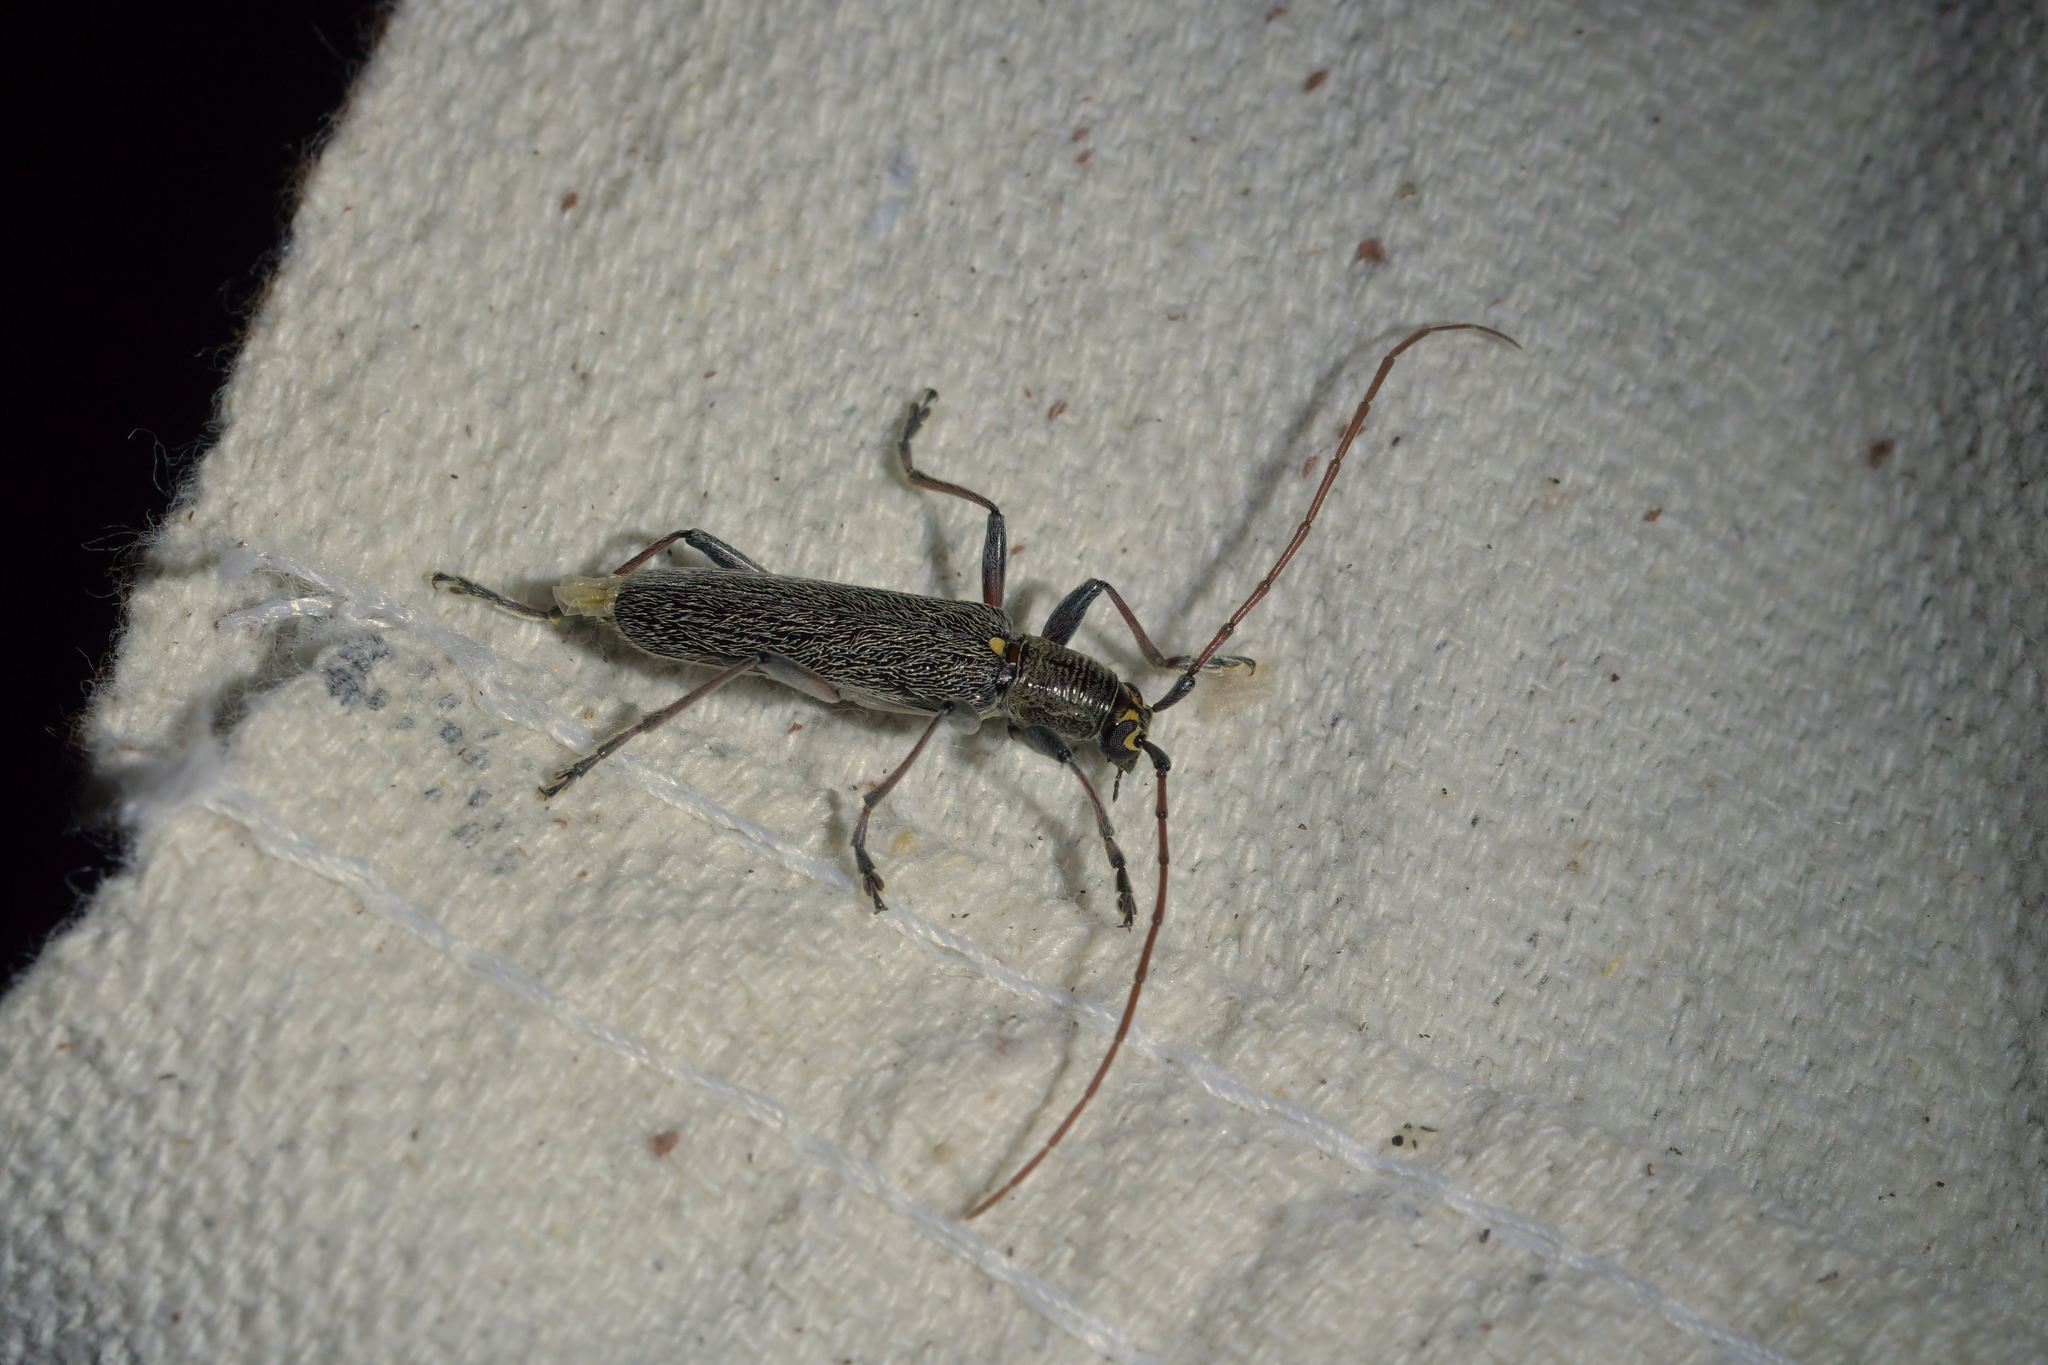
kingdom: Animalia
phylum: Arthropoda
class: Insecta
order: Coleoptera
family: Cerambycidae
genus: Oemona
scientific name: Oemona hirta
